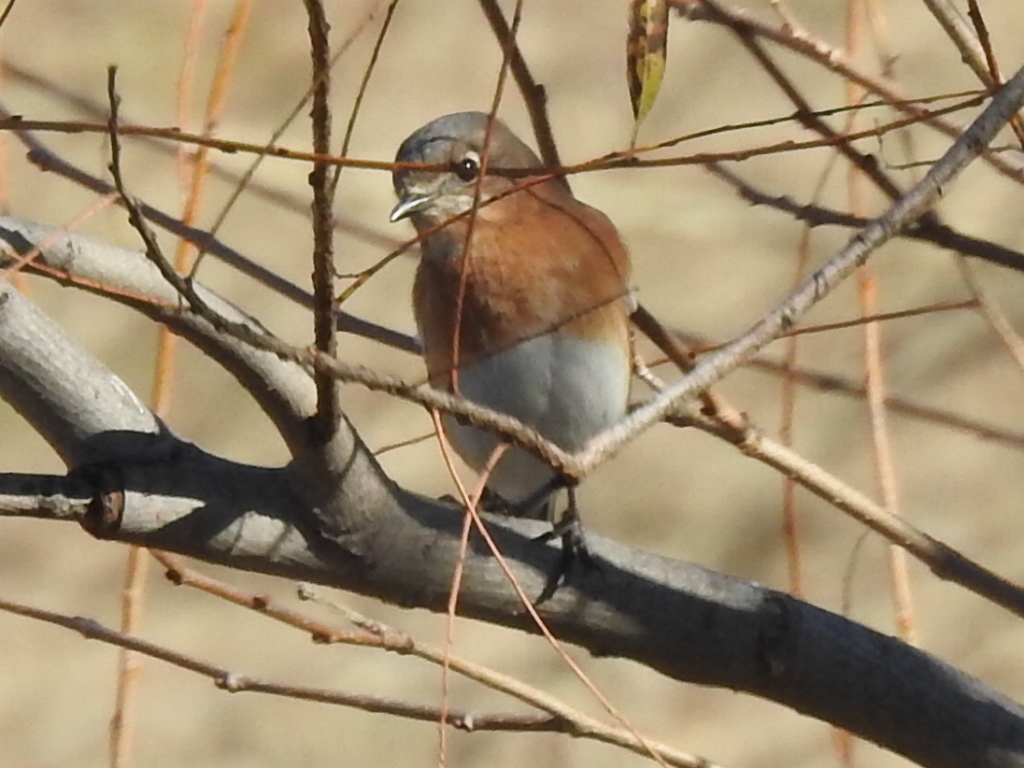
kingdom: Animalia
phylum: Chordata
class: Aves
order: Passeriformes
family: Turdidae
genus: Sialia
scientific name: Sialia sialis
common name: Eastern bluebird
